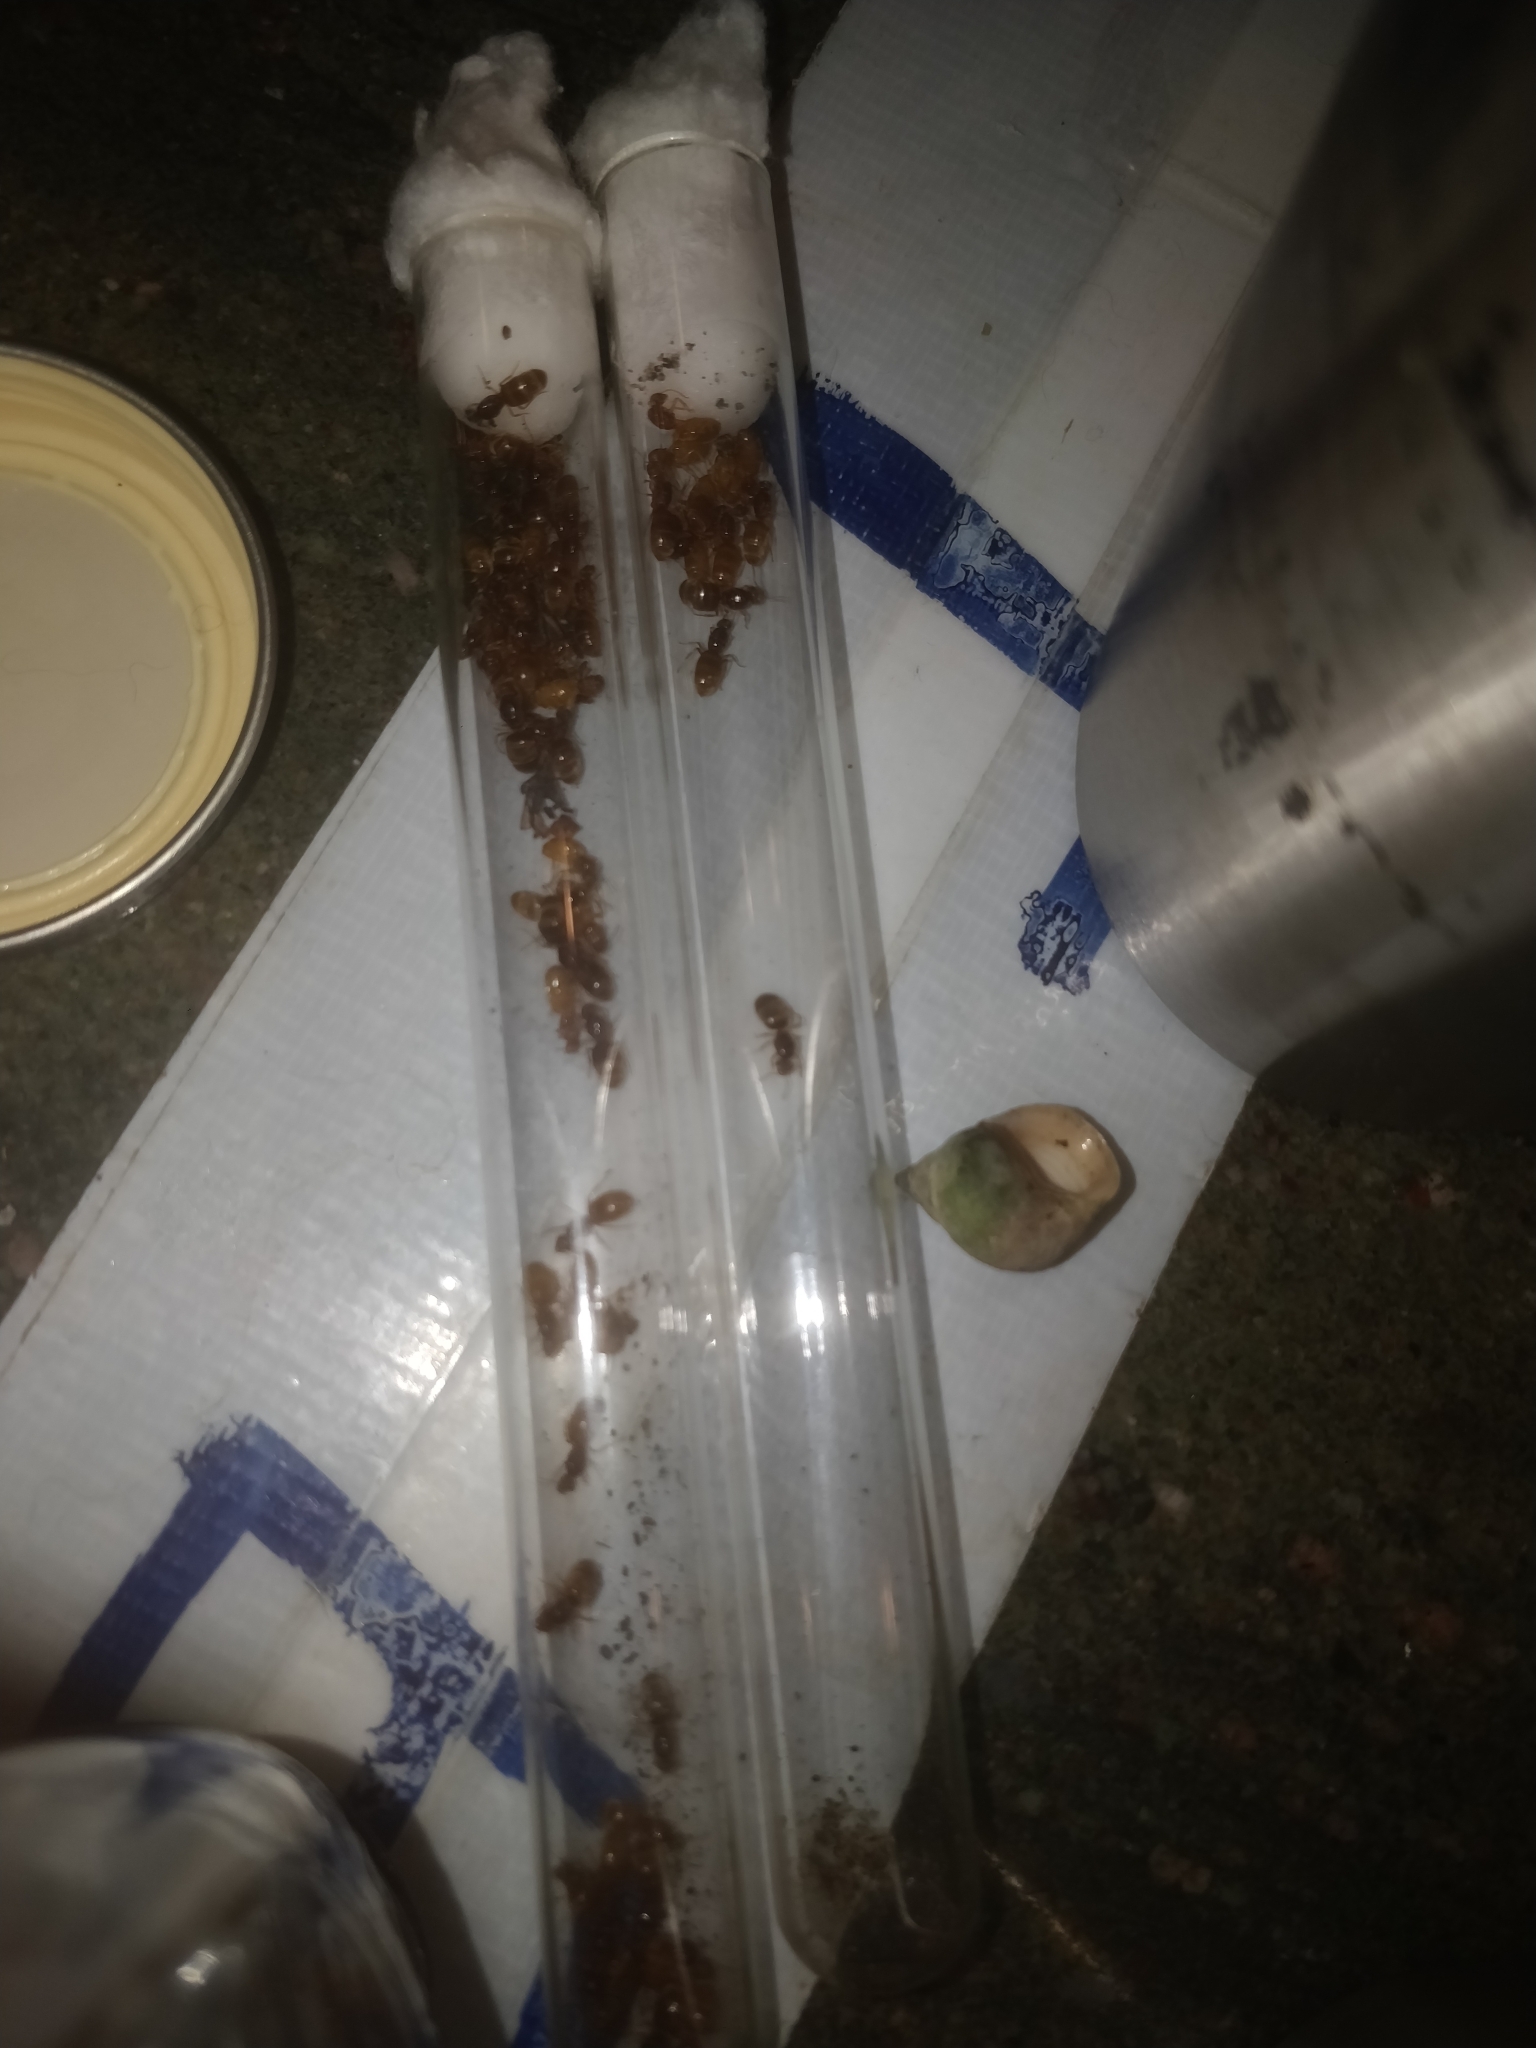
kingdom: Animalia
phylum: Arthropoda
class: Insecta
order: Hymenoptera
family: Formicidae
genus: Lasius
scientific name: Lasius
